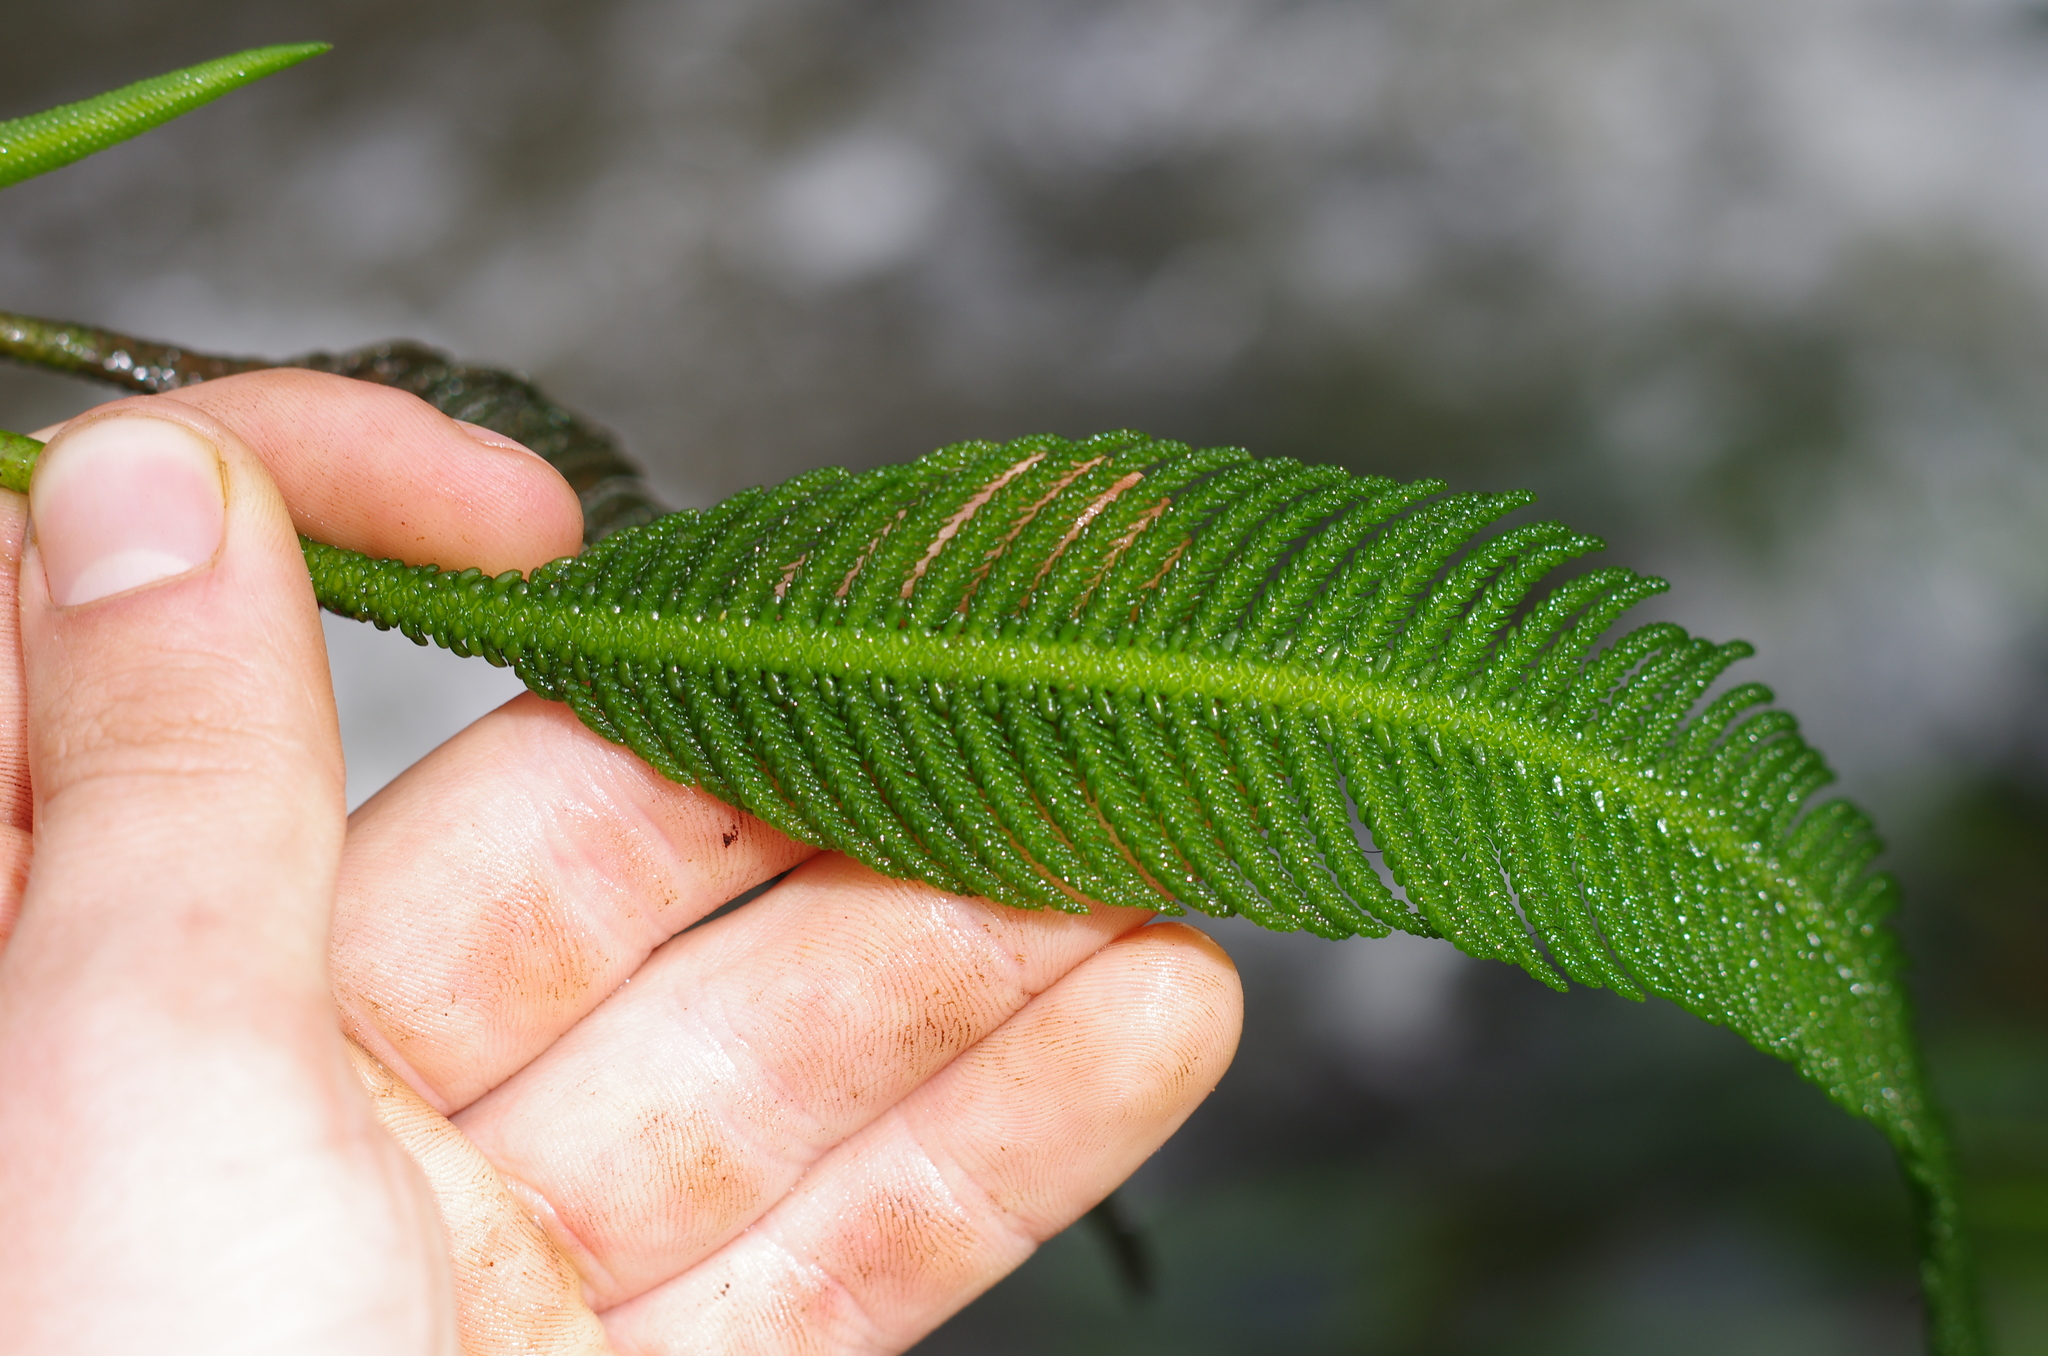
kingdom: Plantae
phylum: Tracheophyta
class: Magnoliopsida
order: Cornales
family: Hydrostachyaceae
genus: Hydrostachys
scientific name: Hydrostachys plumosa
